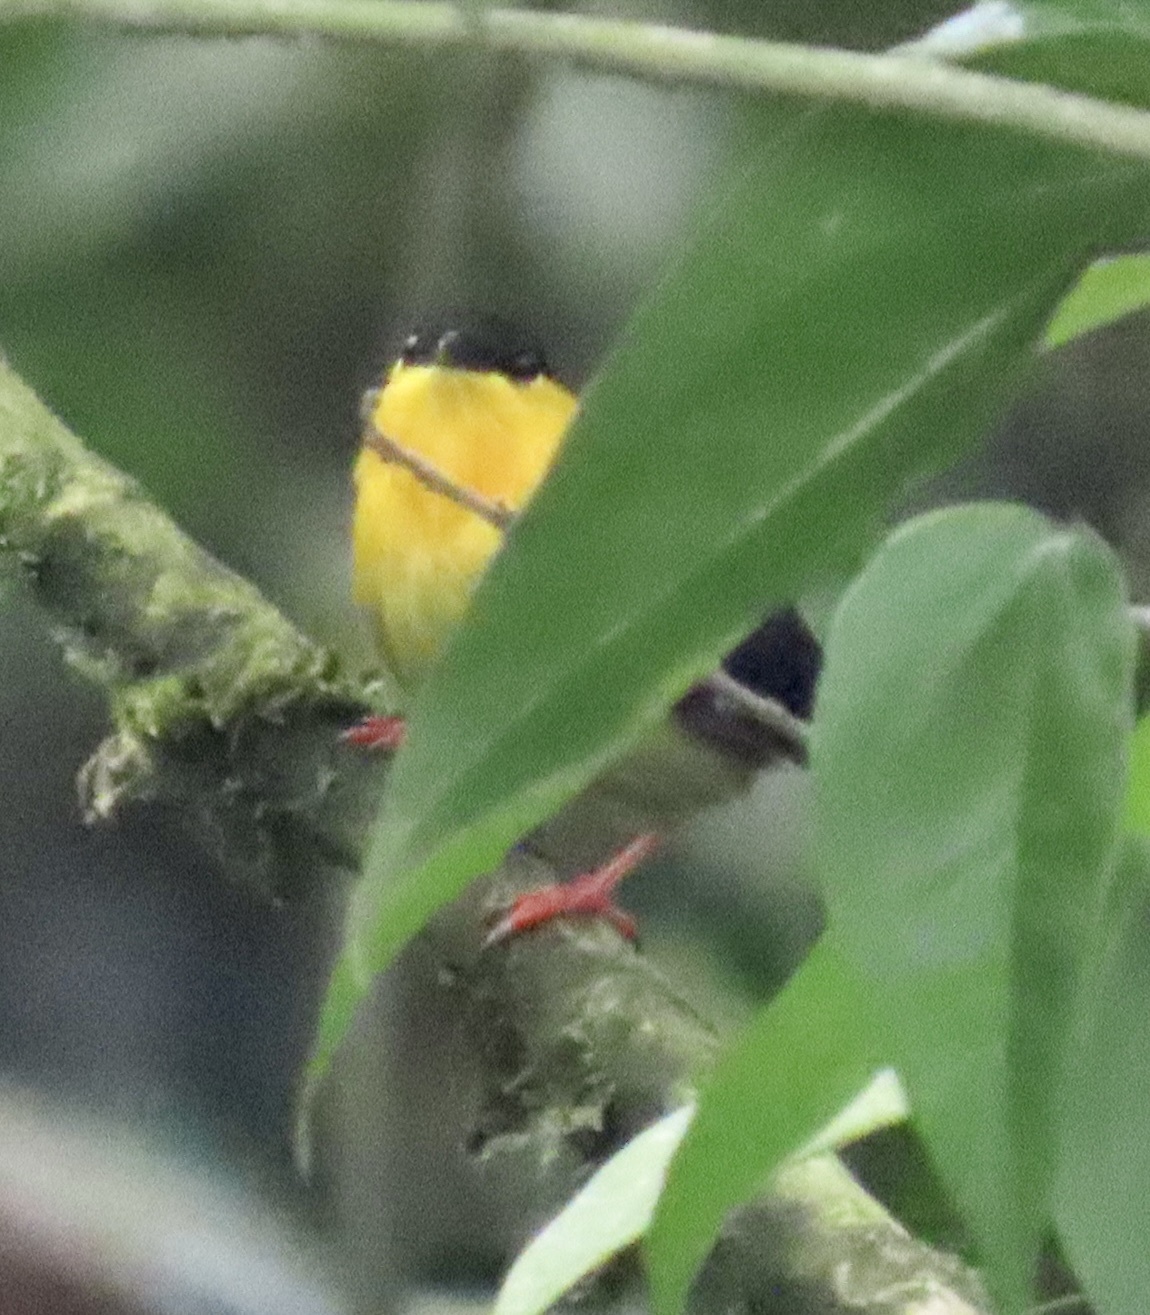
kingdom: Animalia
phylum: Chordata
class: Aves
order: Passeriformes
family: Pipridae
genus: Manacus
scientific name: Manacus vitellinus
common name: Golden-collared manakin
